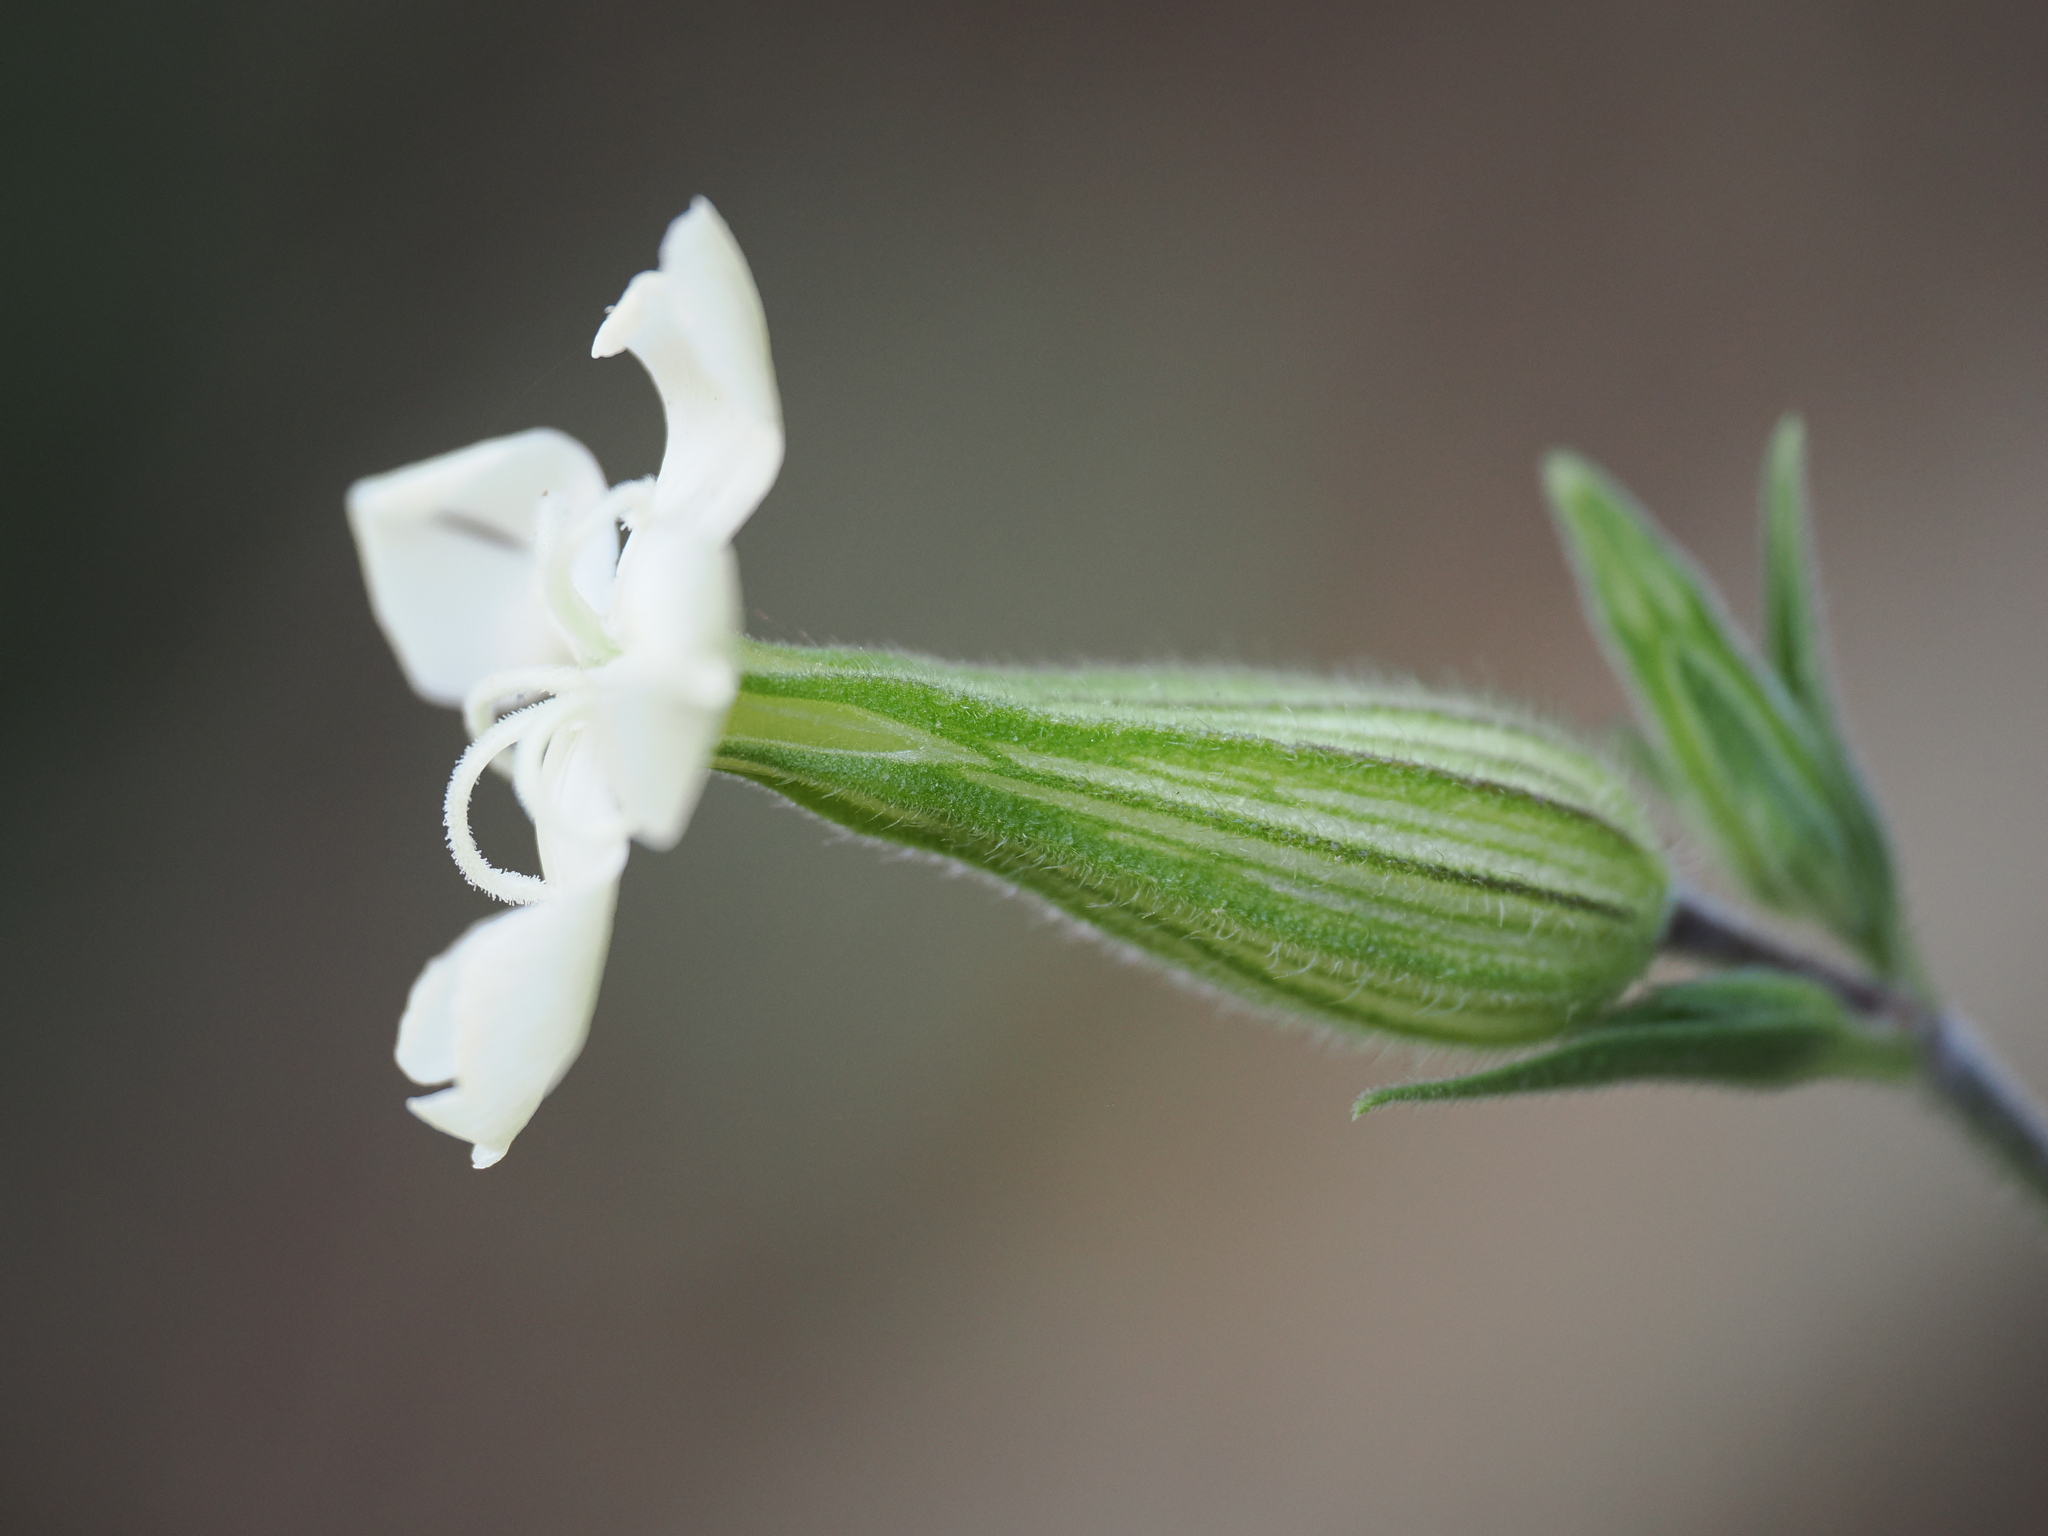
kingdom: Plantae
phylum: Tracheophyta
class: Magnoliopsida
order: Caryophyllales
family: Caryophyllaceae
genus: Silene
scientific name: Silene latifolia
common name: White campion
